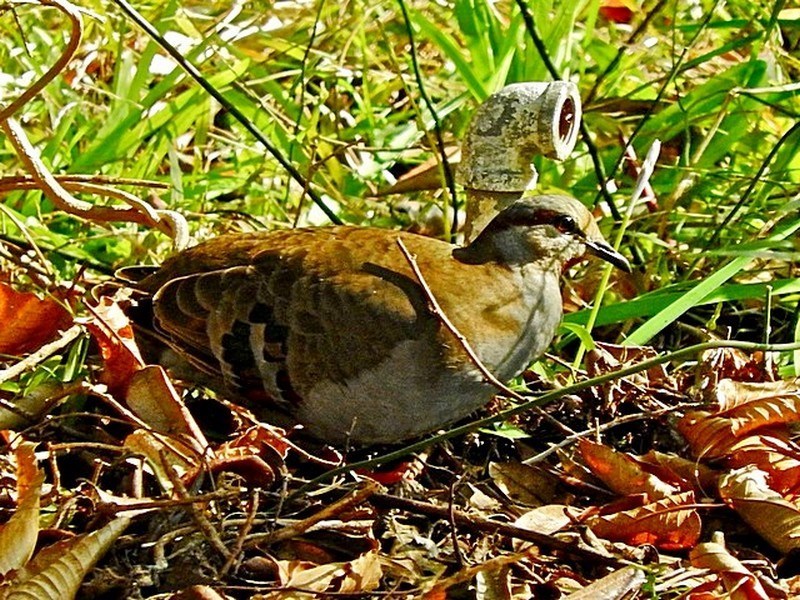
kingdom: Animalia
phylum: Chordata
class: Aves
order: Columbiformes
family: Columbidae
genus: Phaps
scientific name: Phaps elegans
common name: Brush bronzewing
